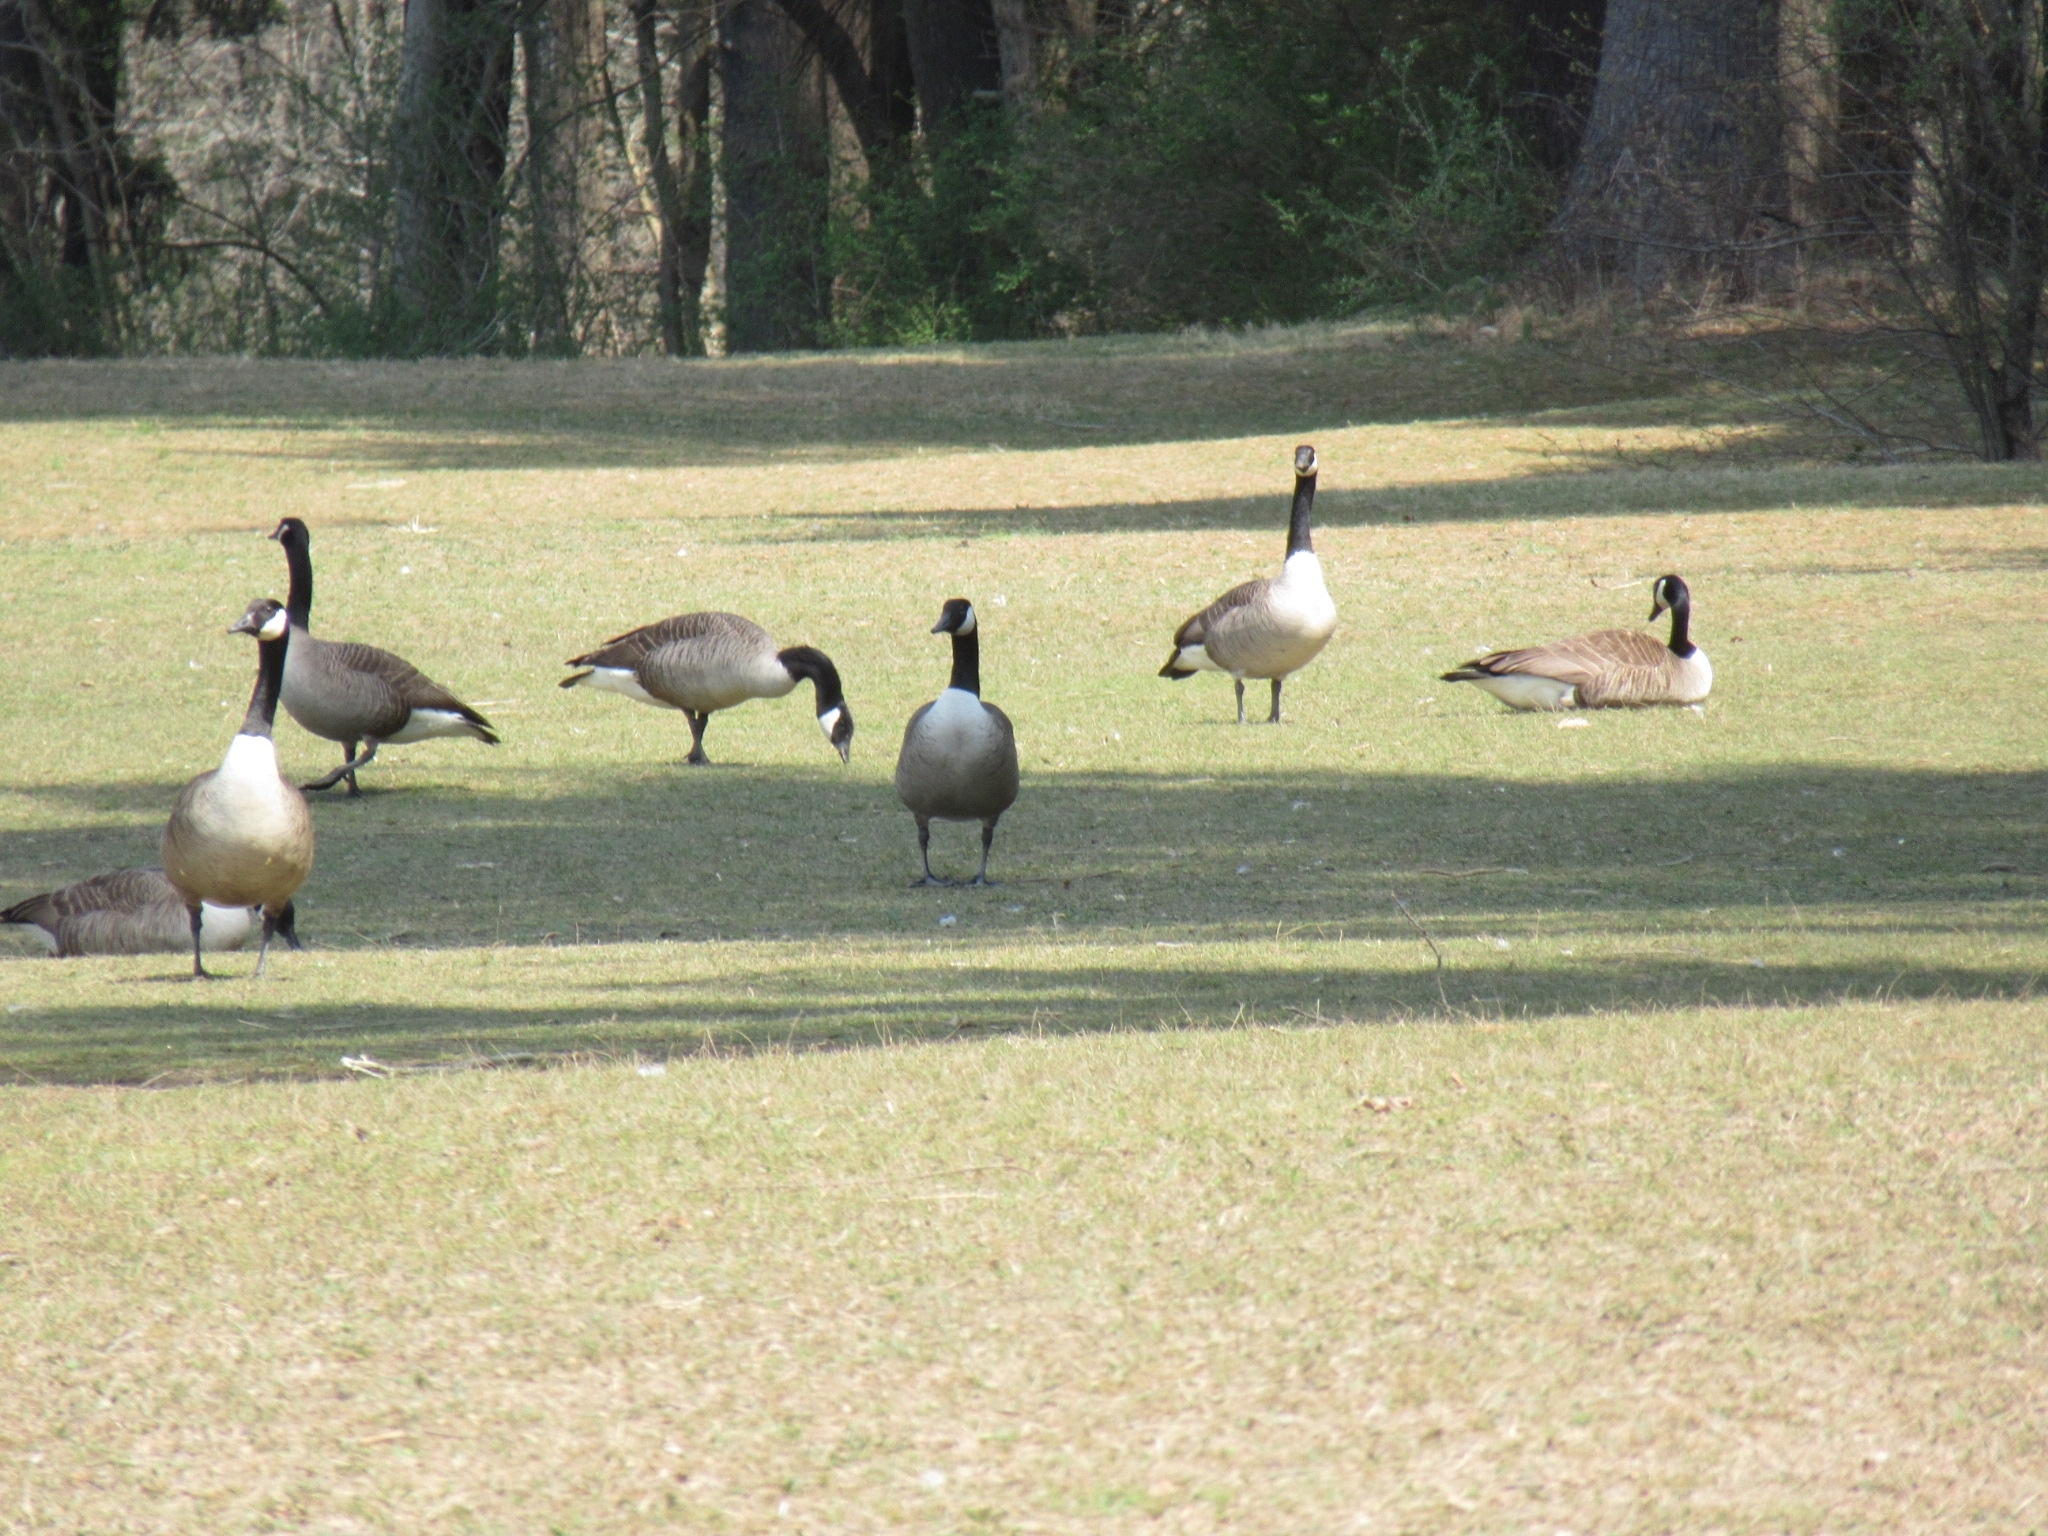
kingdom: Animalia
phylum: Chordata
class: Aves
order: Anseriformes
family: Anatidae
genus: Branta
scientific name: Branta canadensis
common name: Canada goose
